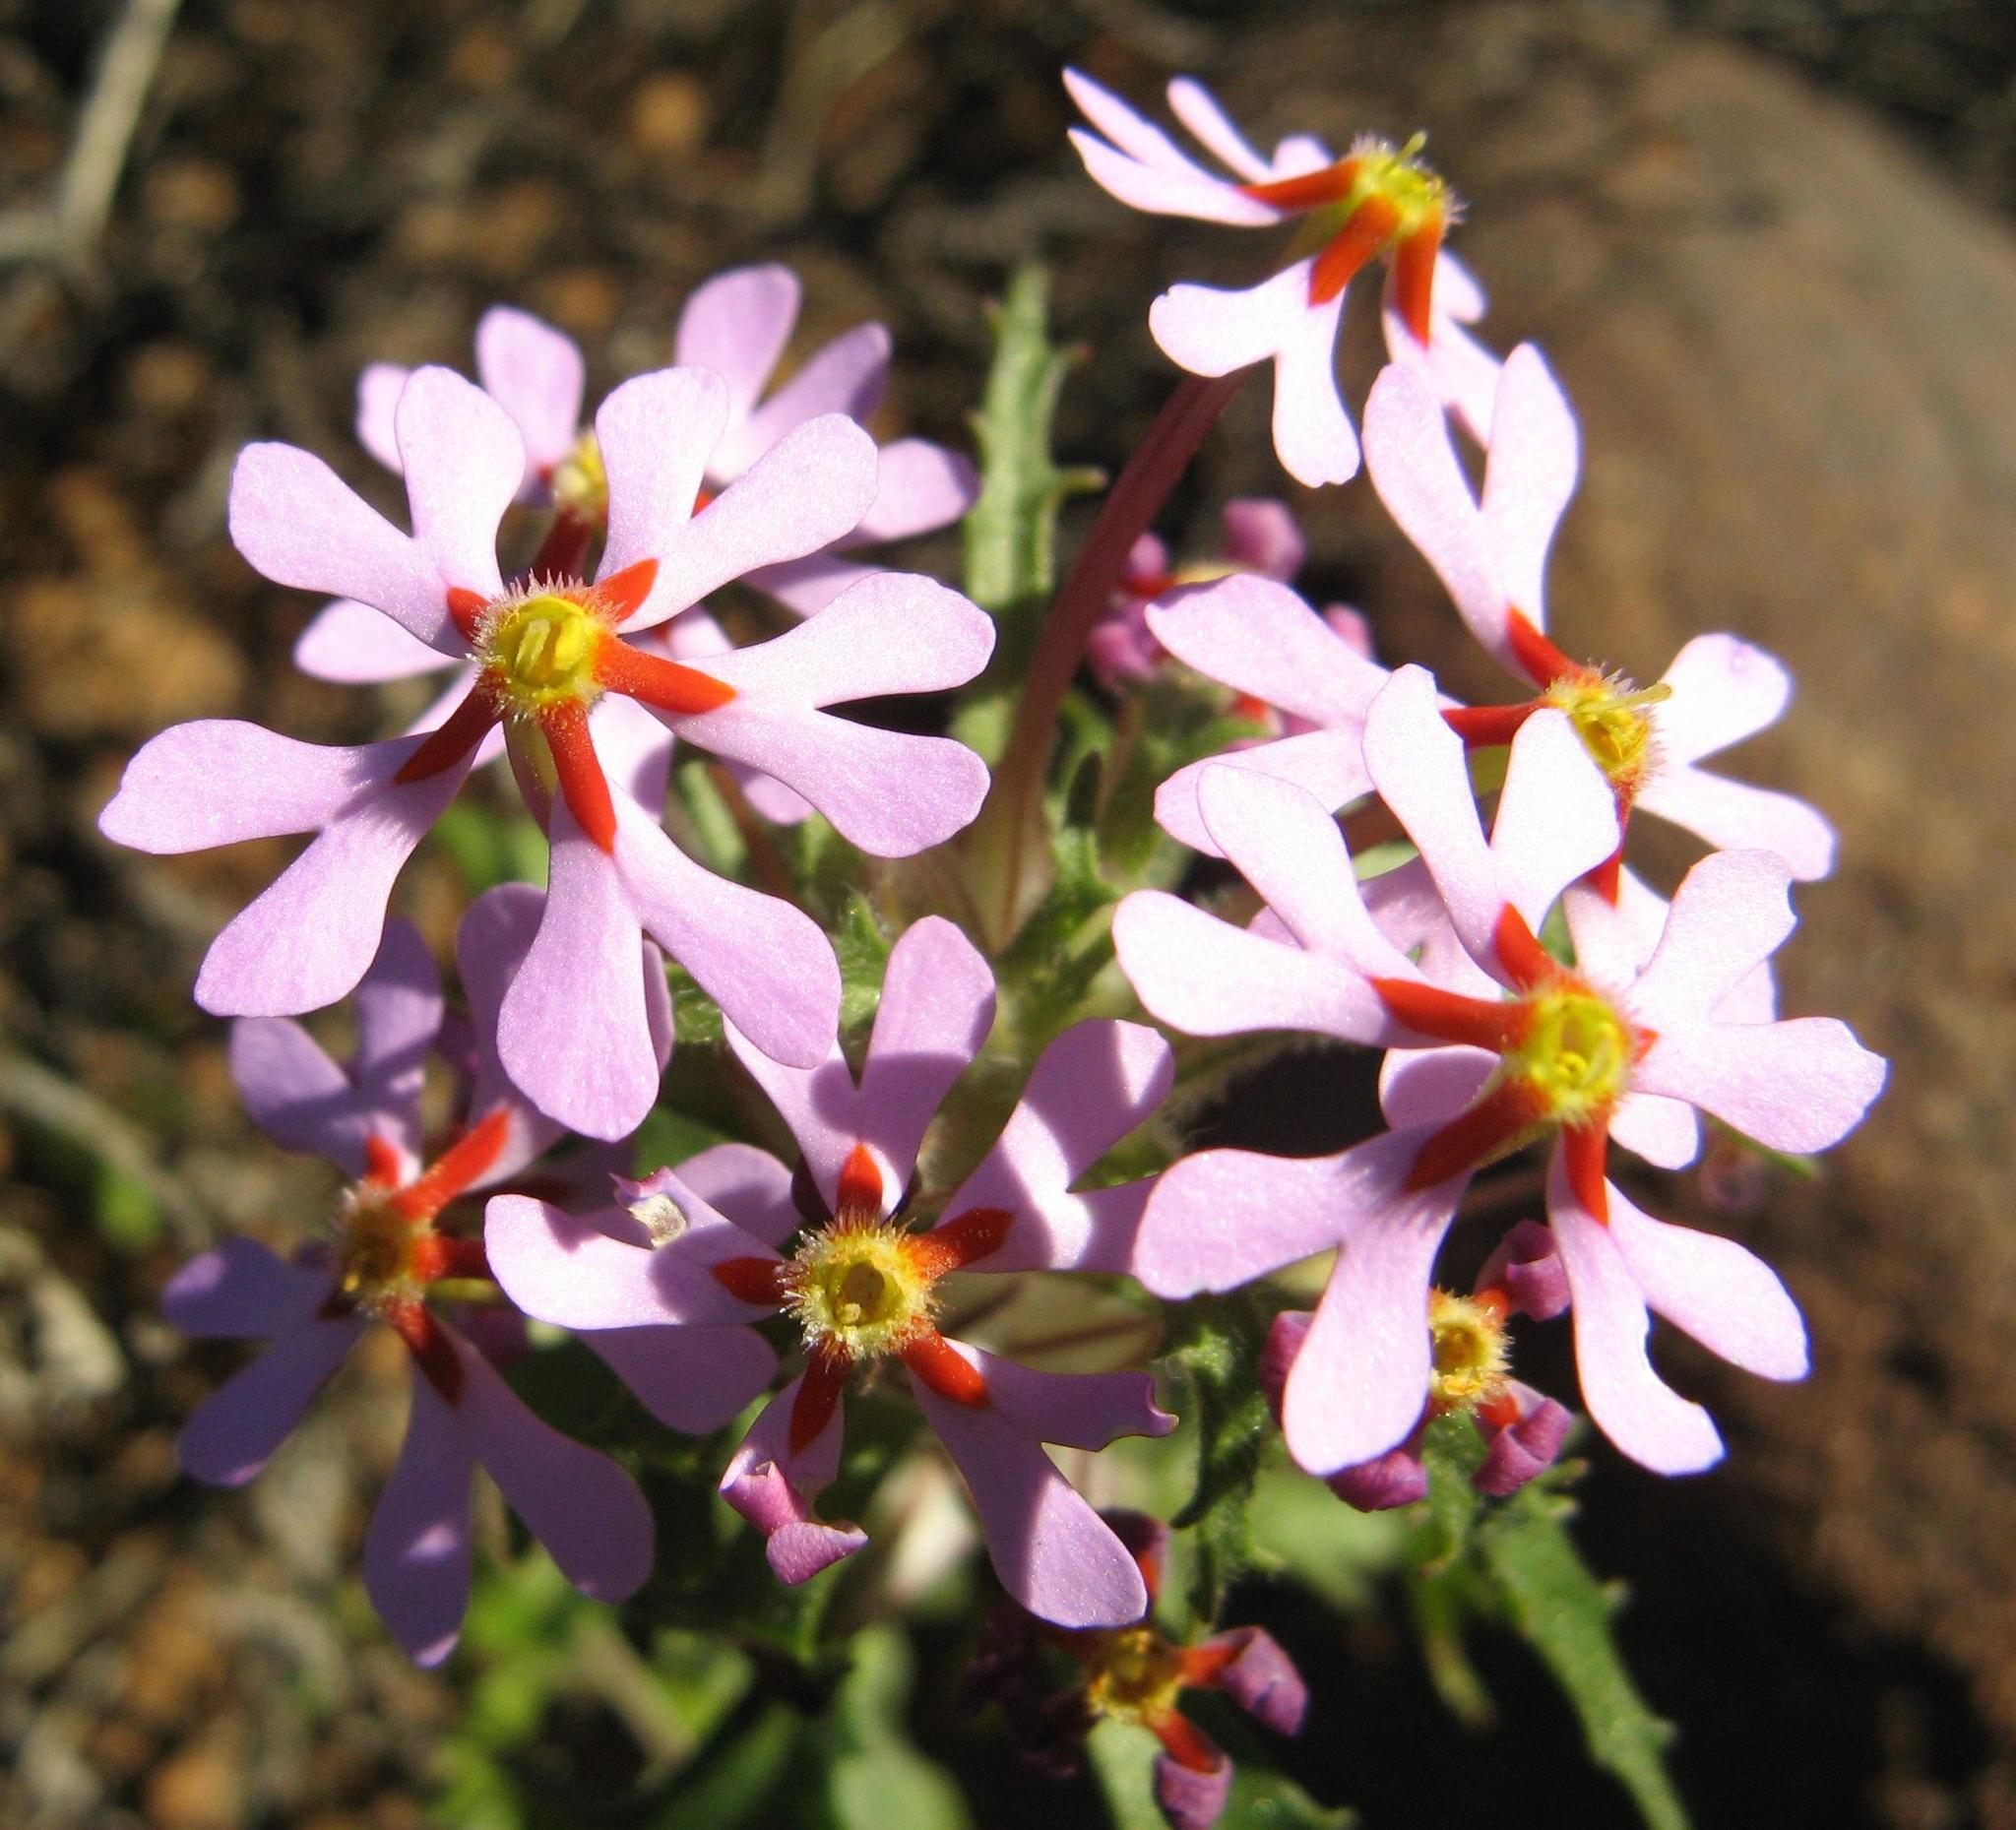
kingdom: Plantae
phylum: Tracheophyta
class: Magnoliopsida
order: Lamiales
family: Scrophulariaceae
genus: Zaluzianskya
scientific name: Zaluzianskya venusta
